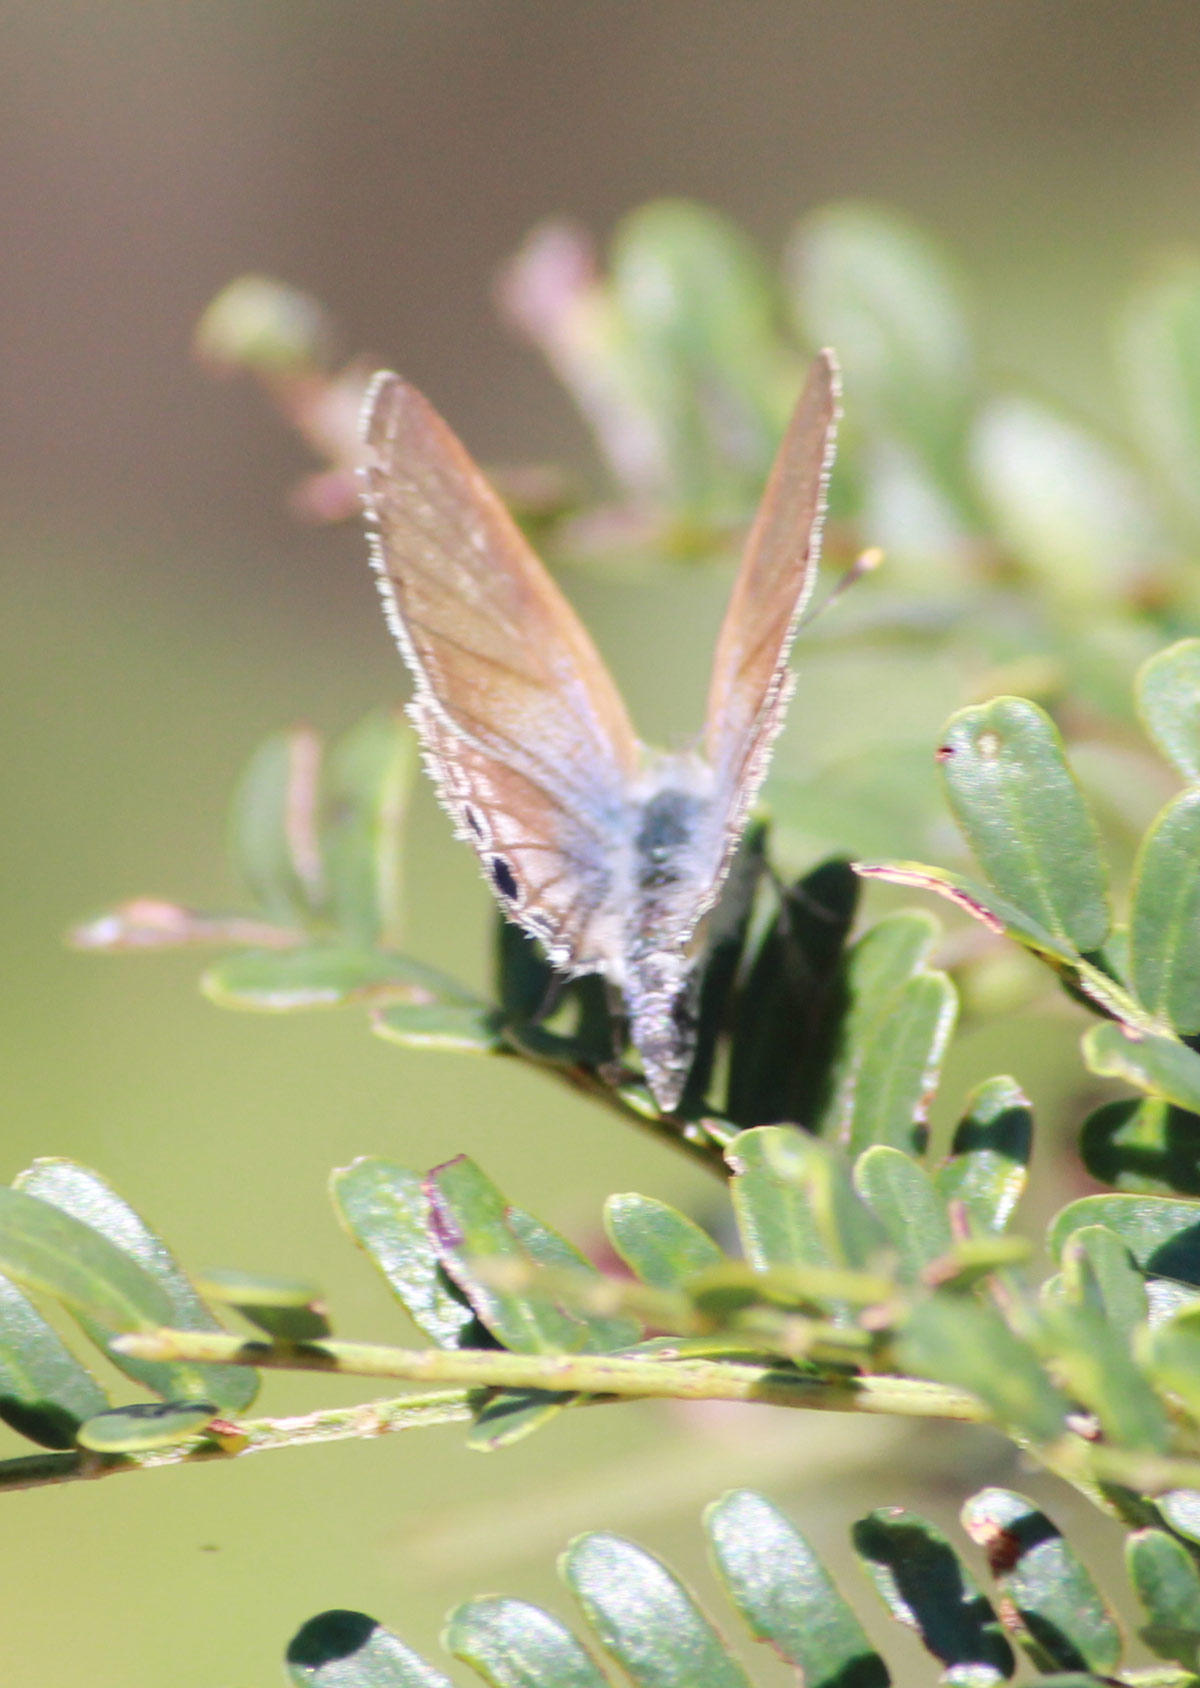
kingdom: Animalia
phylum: Arthropoda
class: Insecta
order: Lepidoptera
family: Lycaenidae
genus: Lampides
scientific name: Lampides boeticus
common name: Long-tailed blue
